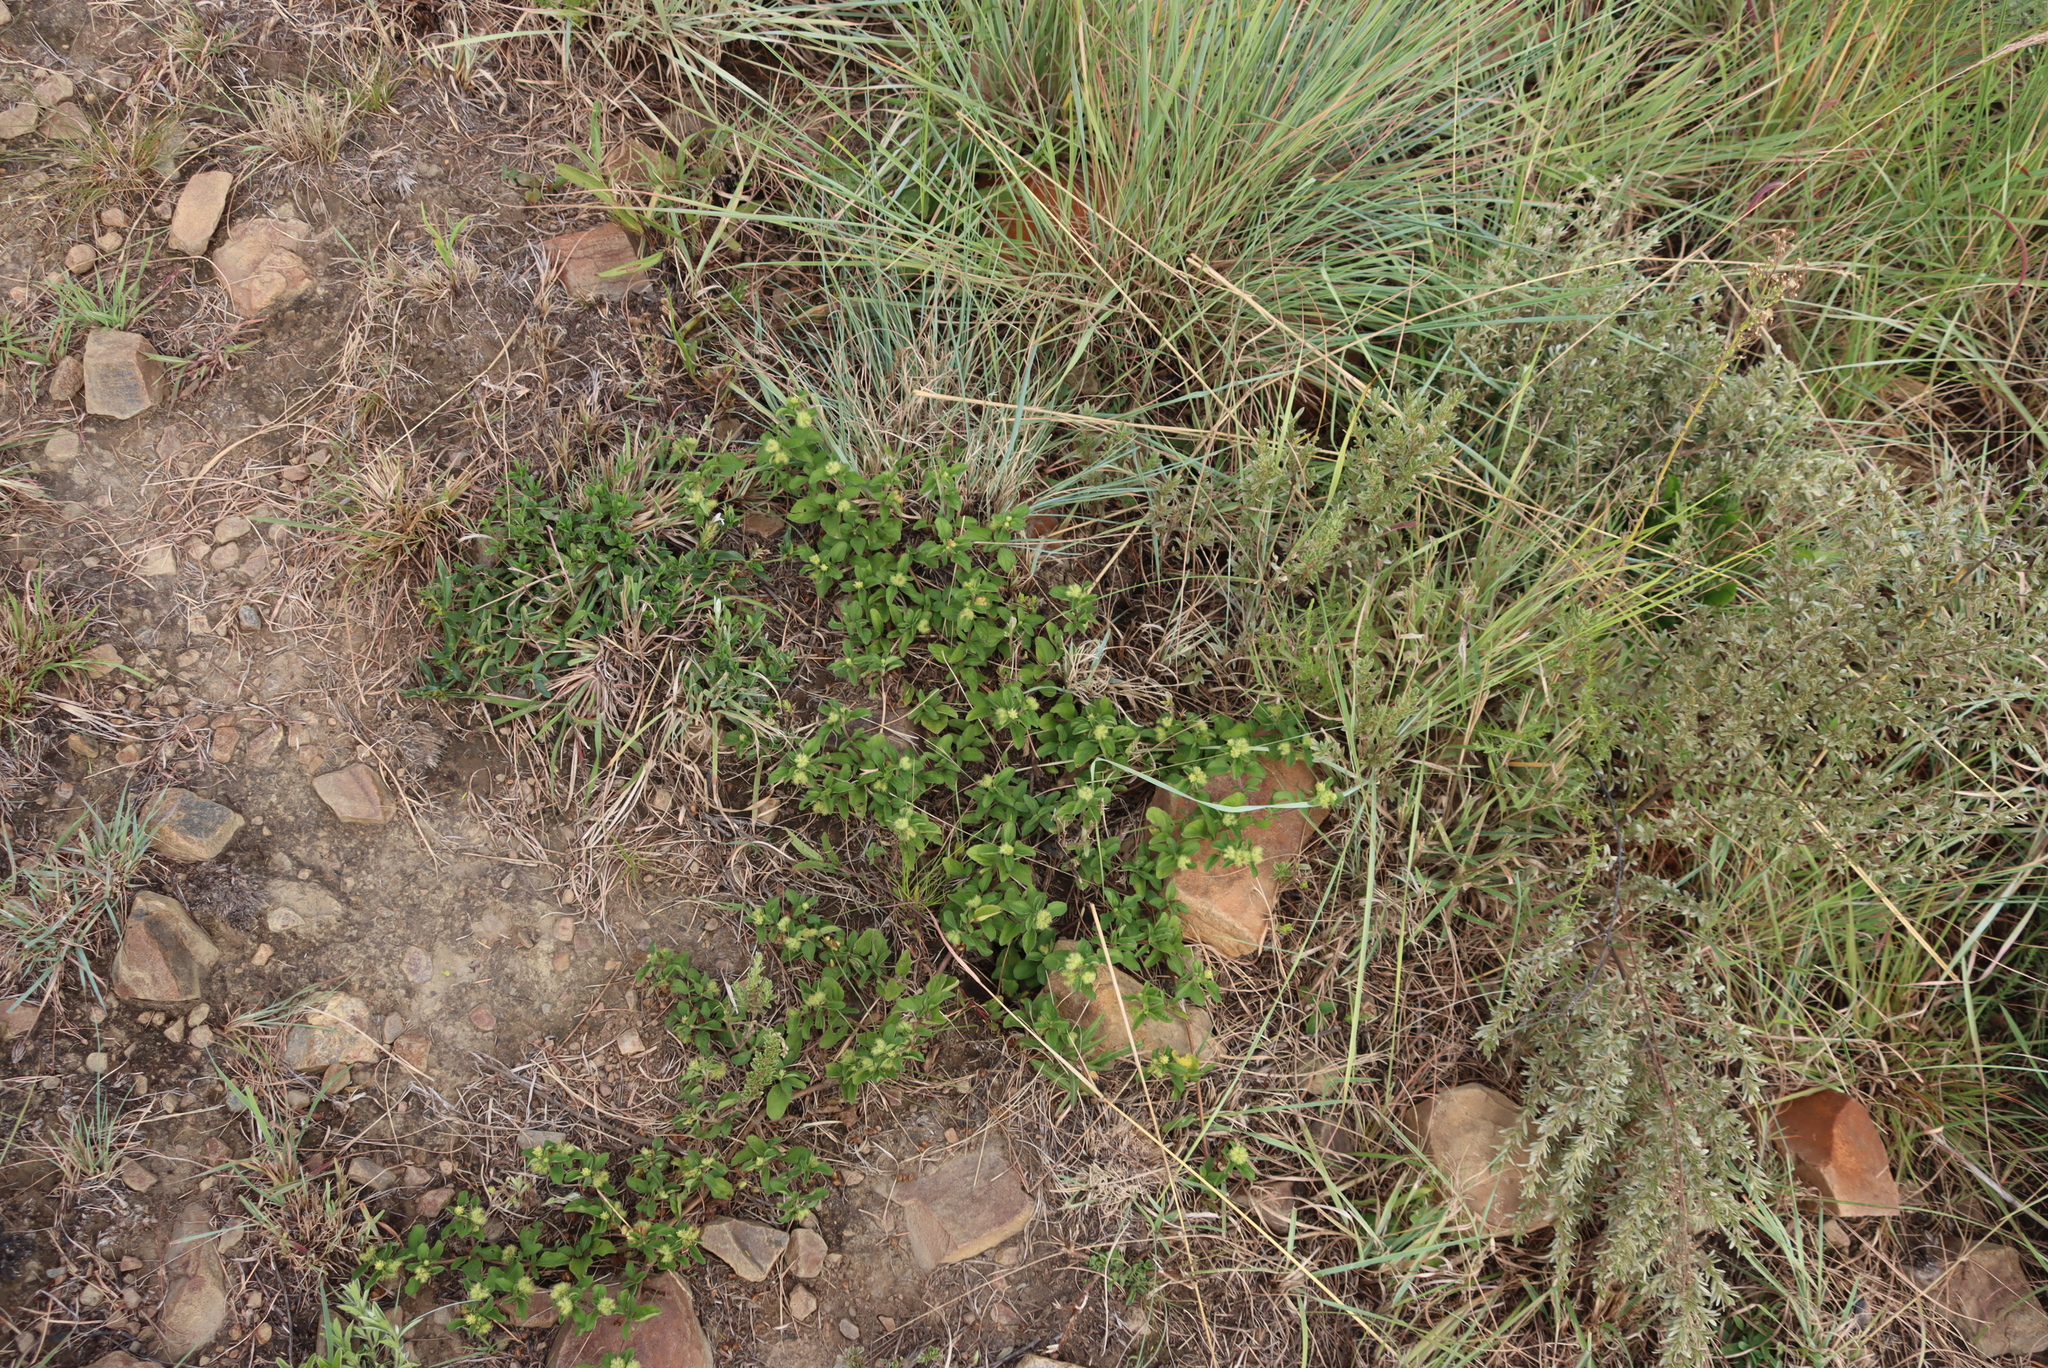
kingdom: Plantae
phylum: Tracheophyta
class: Magnoliopsida
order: Asterales
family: Asteraceae
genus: Acanthospermum
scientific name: Acanthospermum australe
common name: Paraguayan starbur
